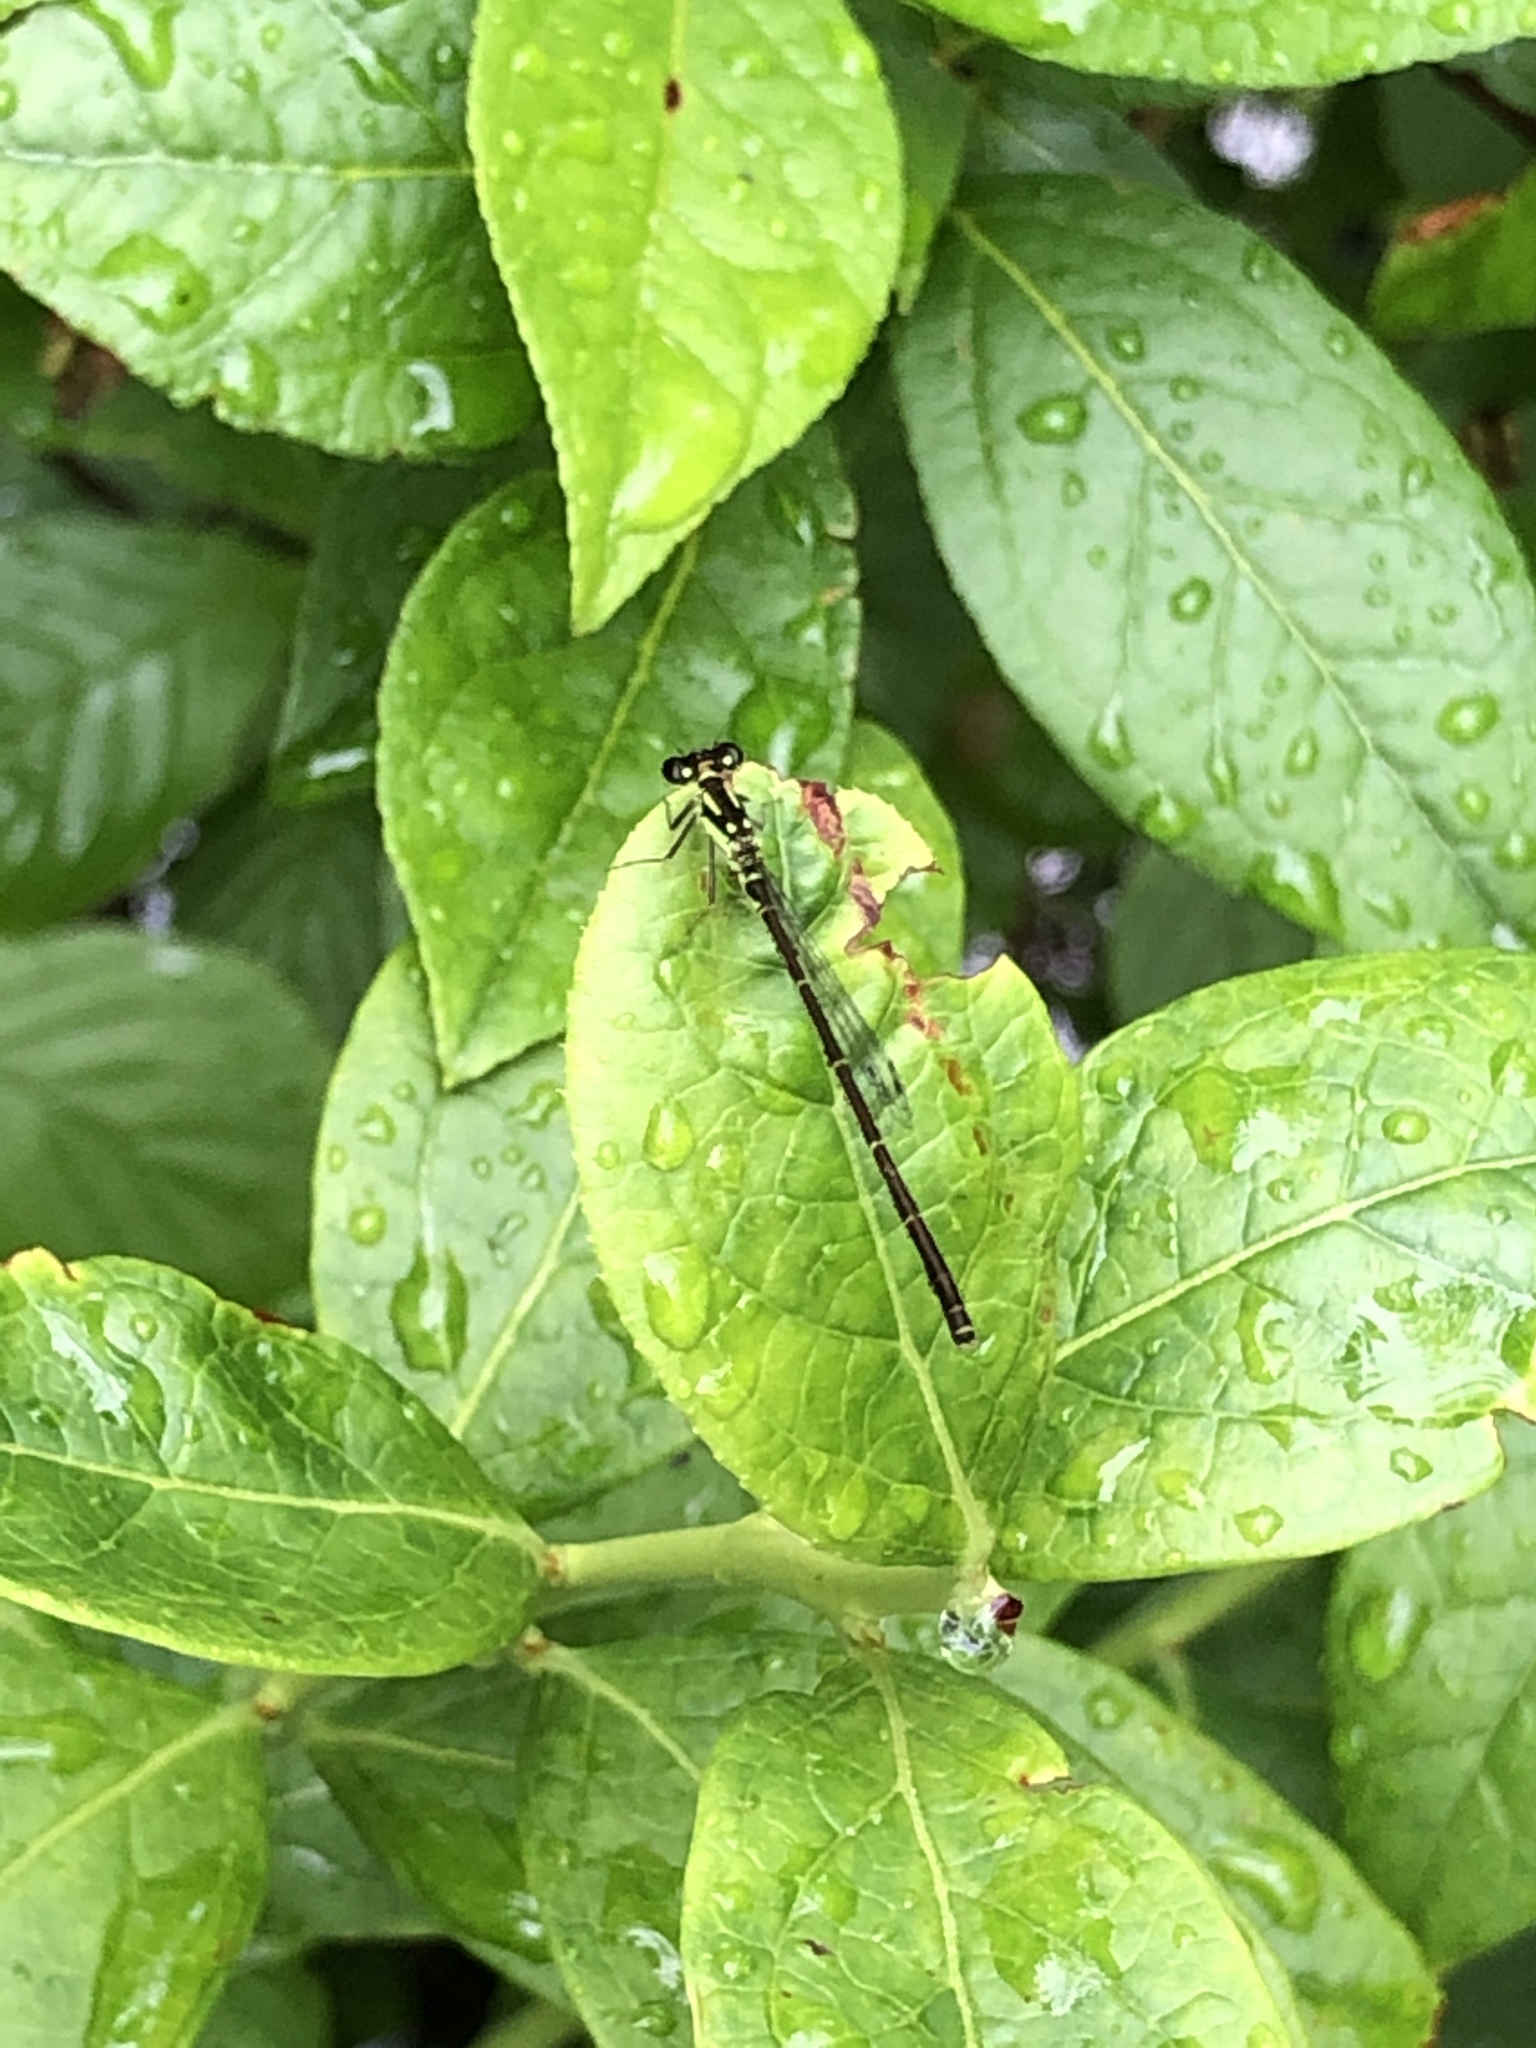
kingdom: Animalia
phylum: Arthropoda
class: Insecta
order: Odonata
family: Coenagrionidae
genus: Ischnura
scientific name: Ischnura posita
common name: Fragile forktail
